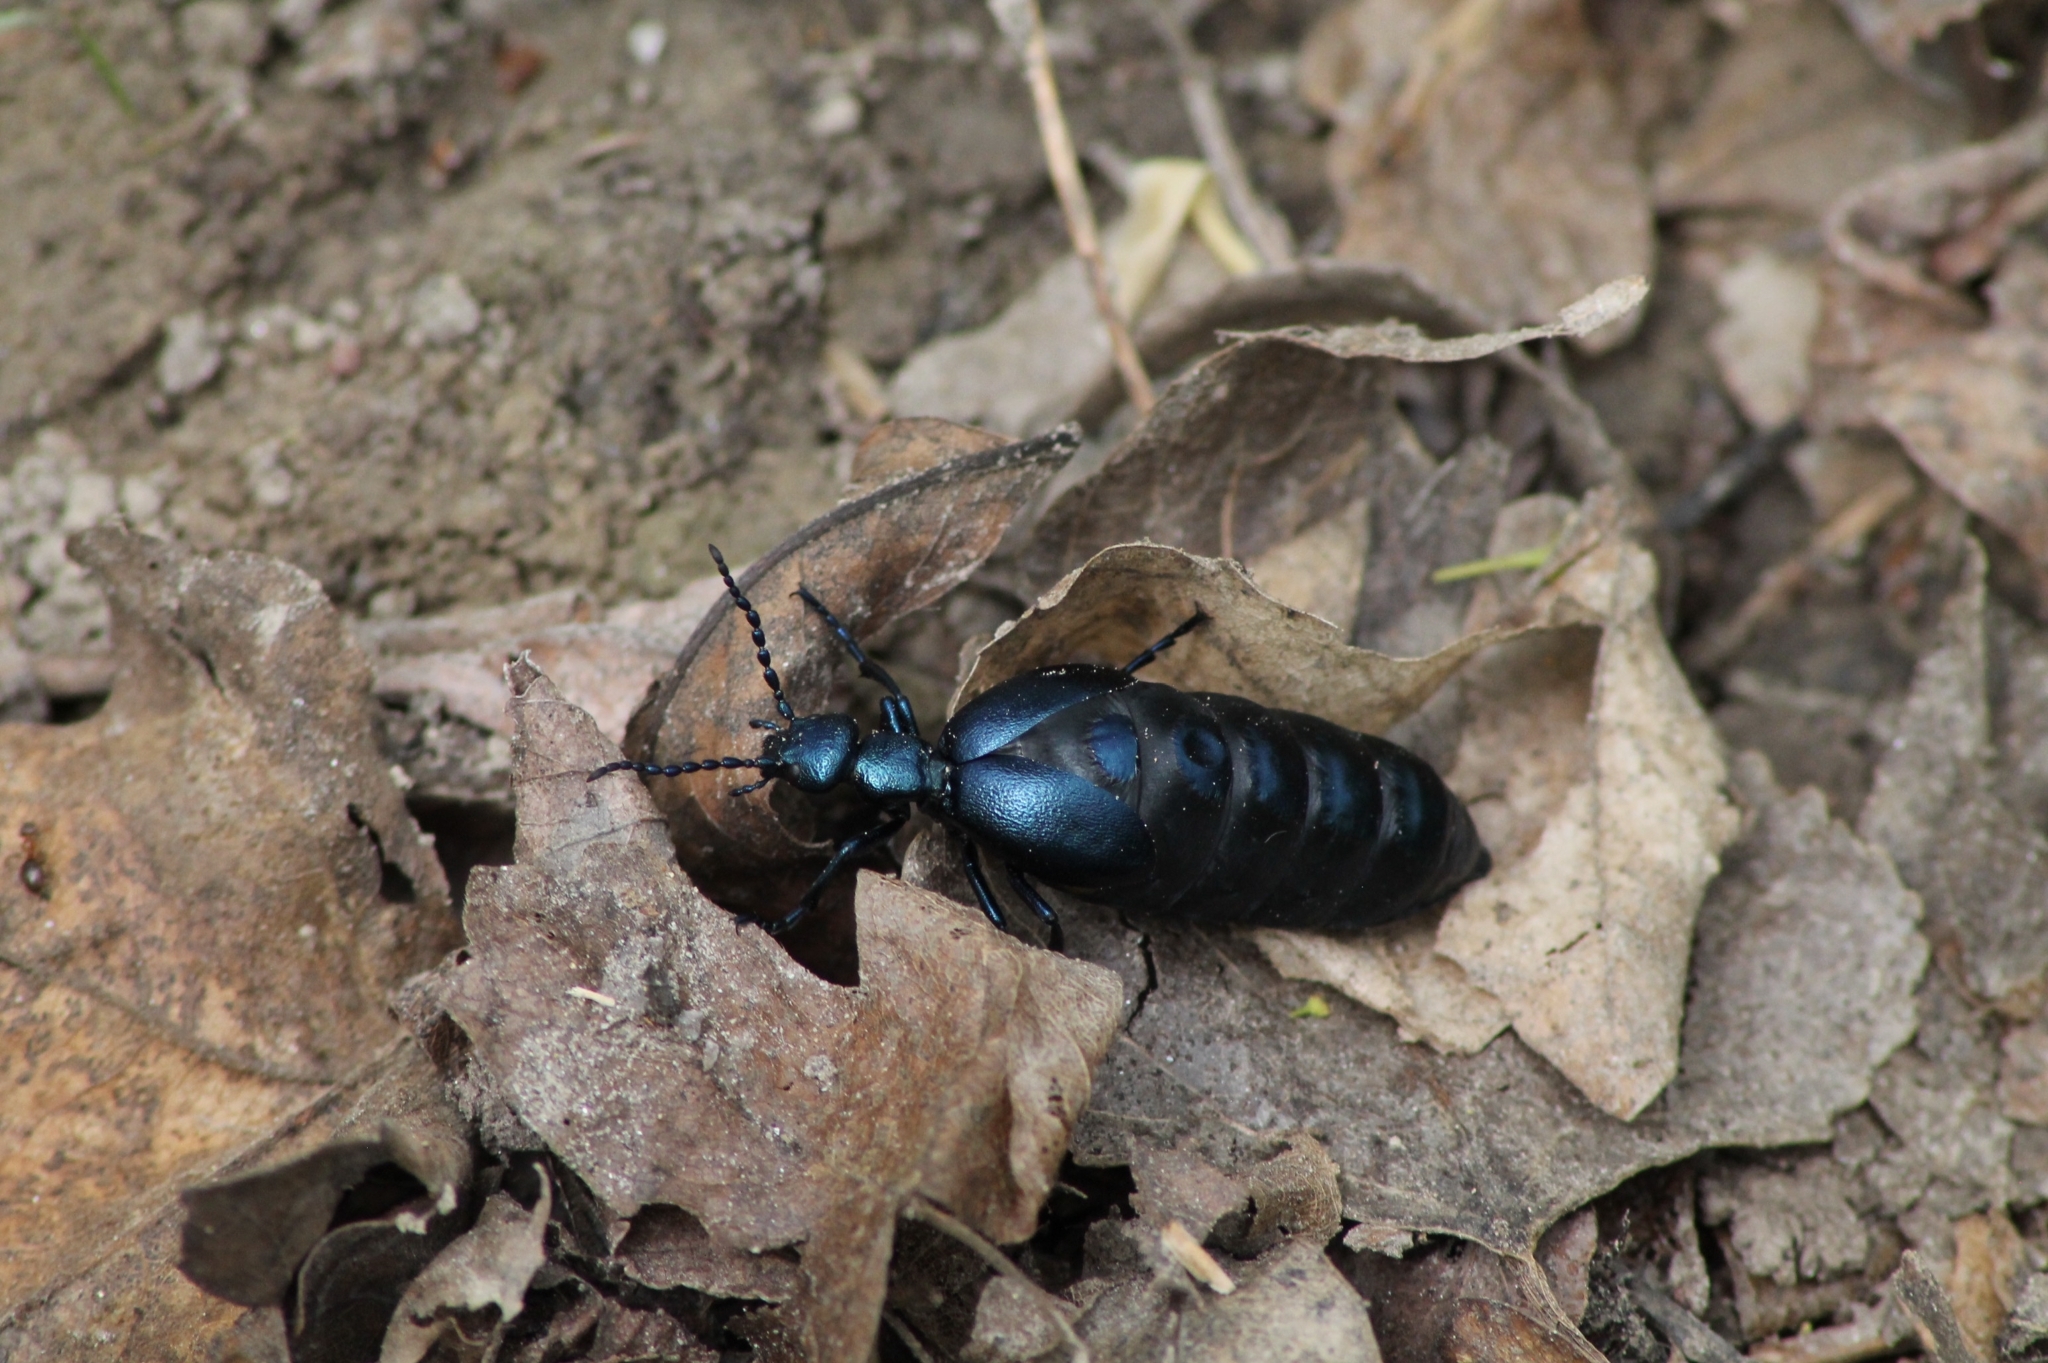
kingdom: Animalia
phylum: Arthropoda
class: Insecta
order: Coleoptera
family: Meloidae
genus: Meloe
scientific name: Meloe violaceus
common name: Violet oil-beetle
